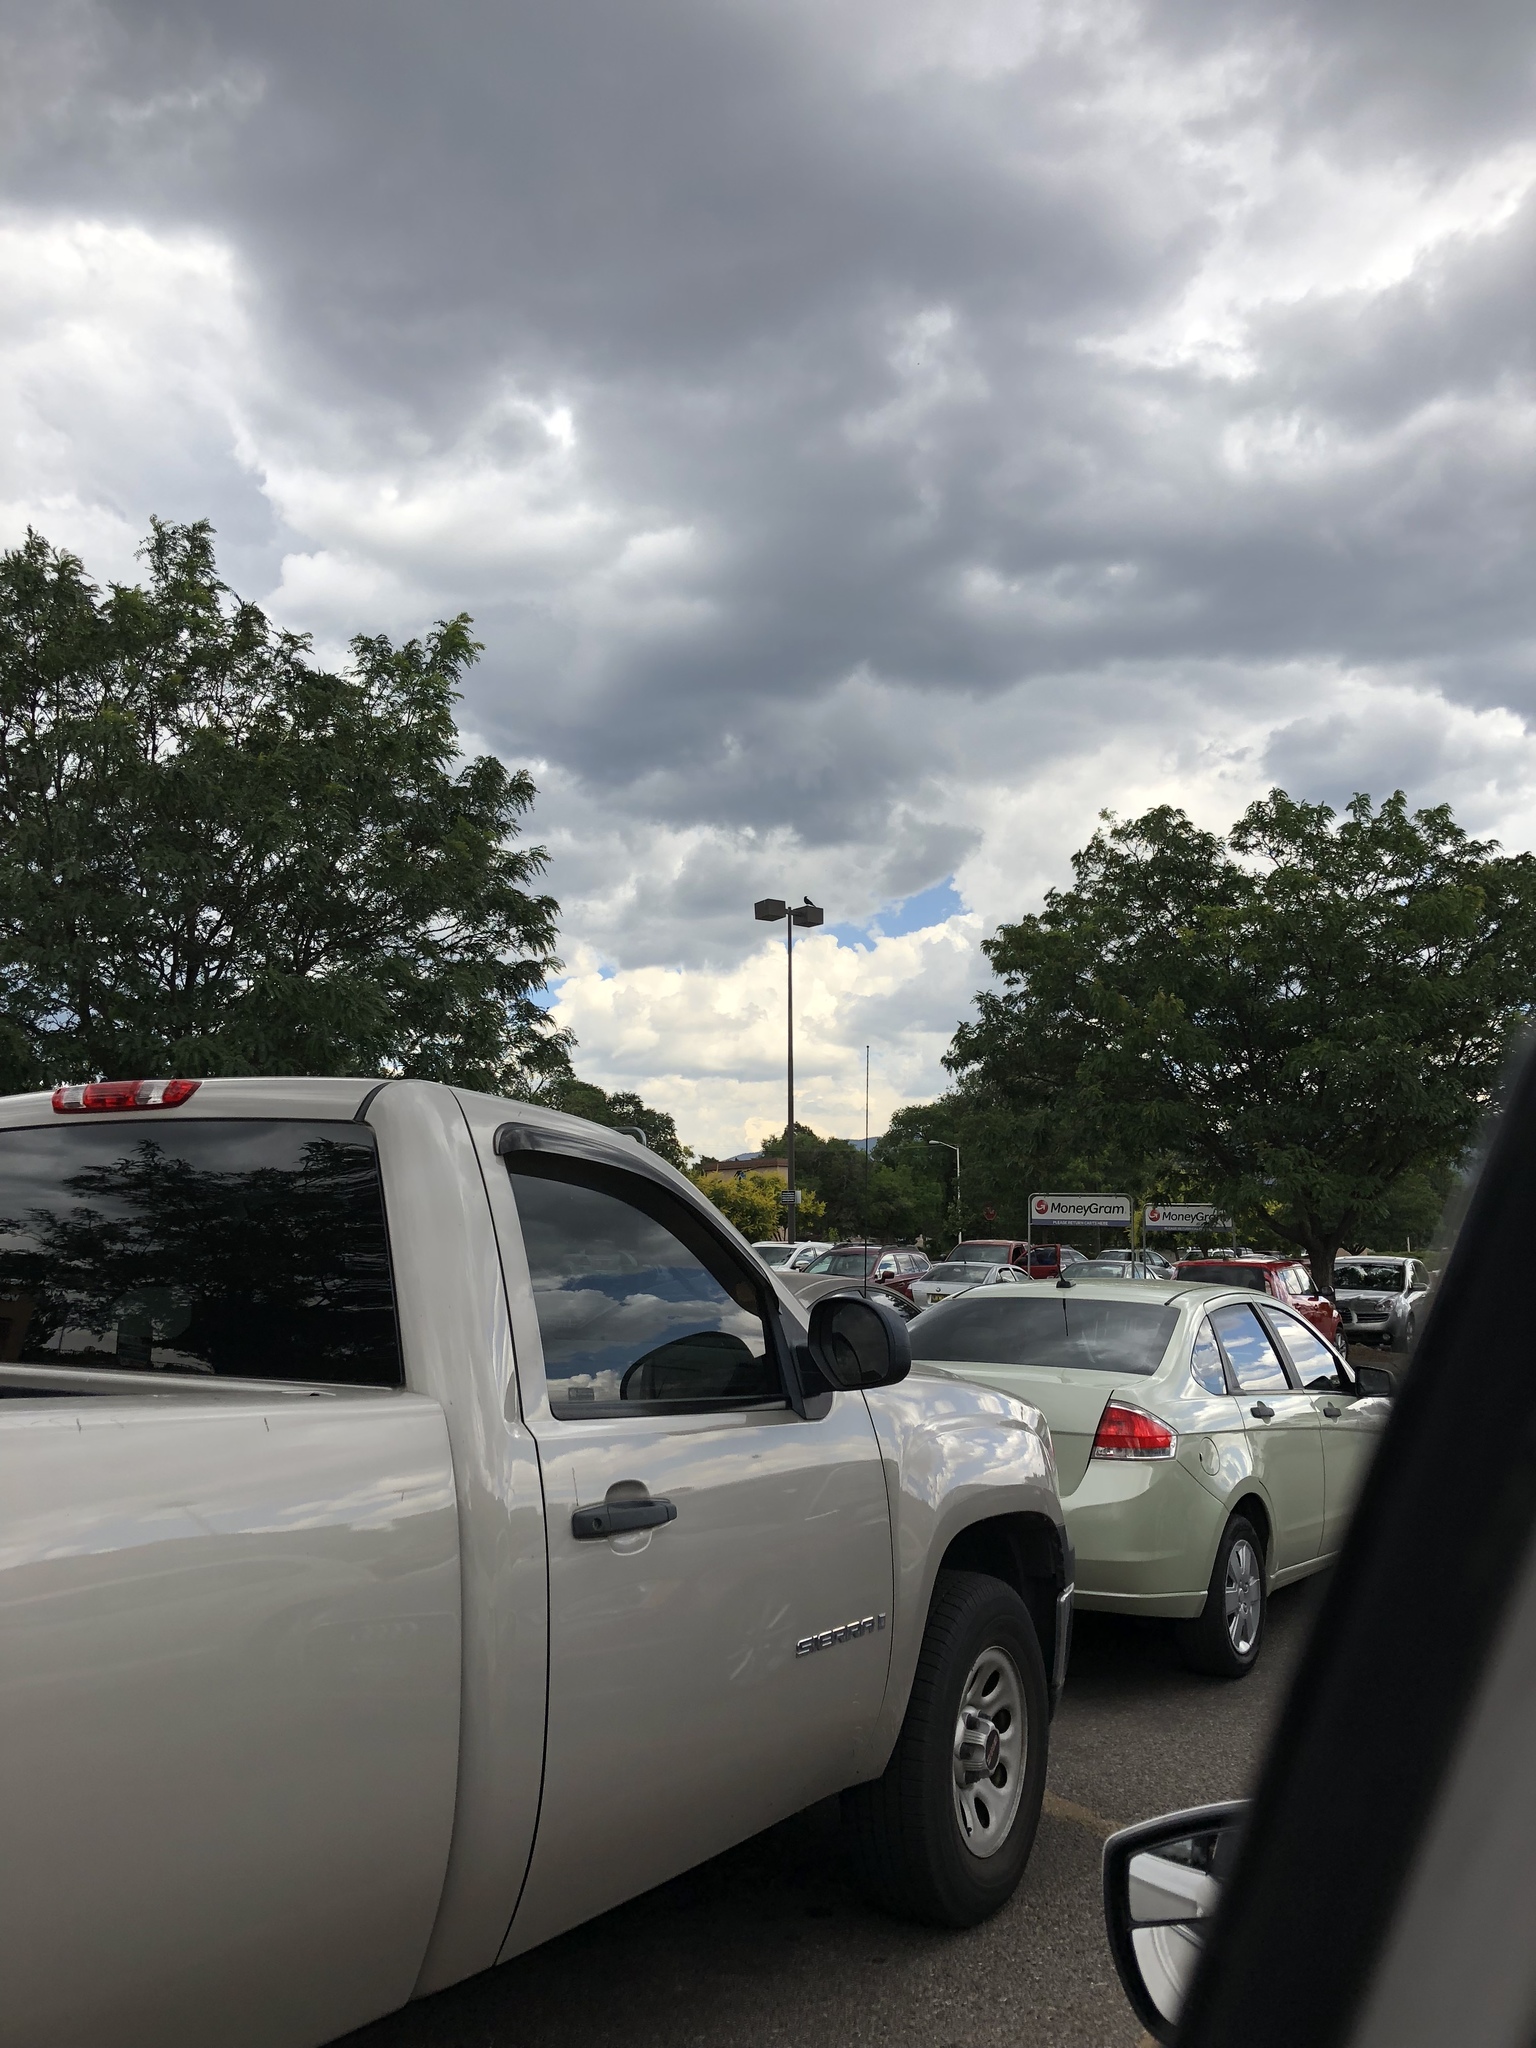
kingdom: Animalia
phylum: Chordata
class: Aves
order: Passeriformes
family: Corvidae
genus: Corvus
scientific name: Corvus brachyrhynchos
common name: American crow
